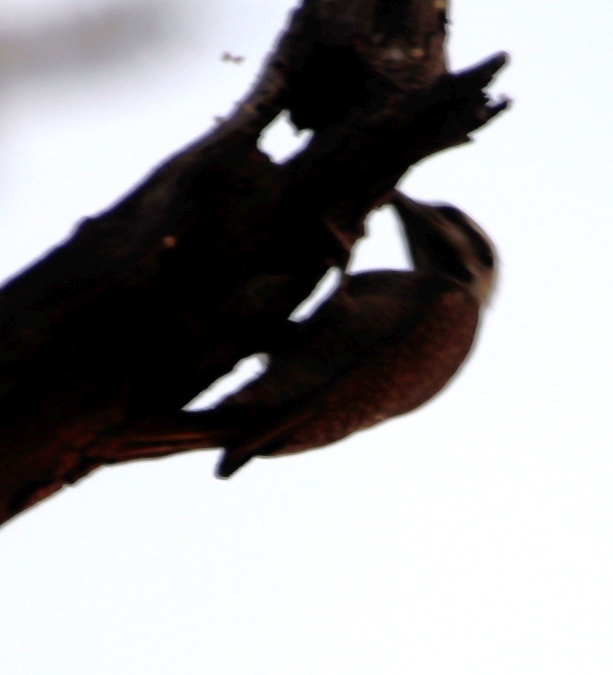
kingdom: Animalia
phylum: Chordata
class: Aves
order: Piciformes
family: Picidae
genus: Chloropicus
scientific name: Chloropicus namaquus
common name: Bearded woodpecker
